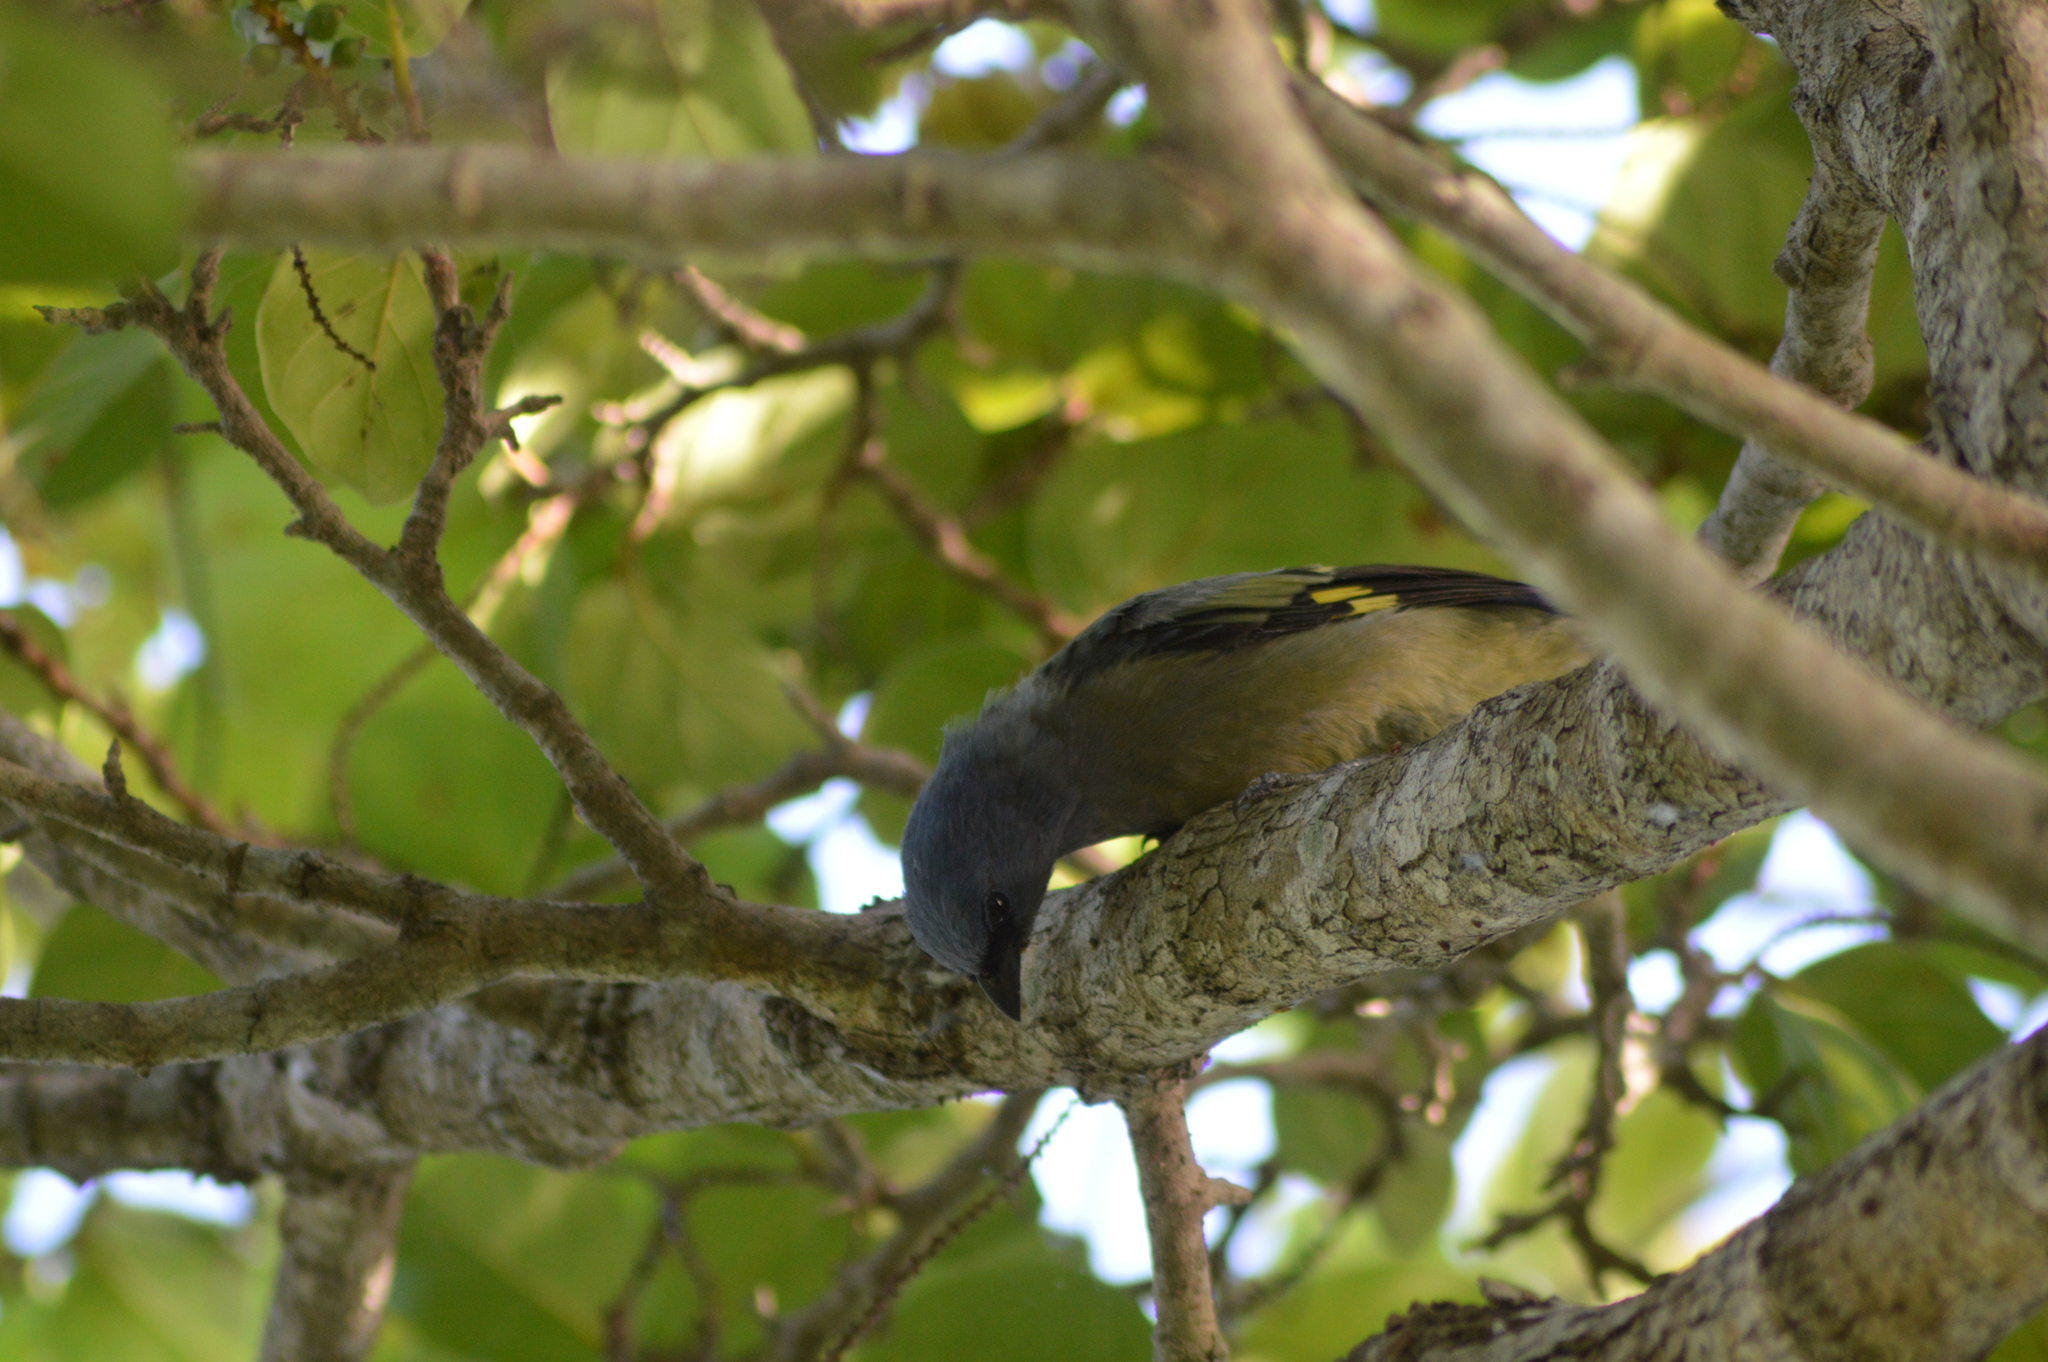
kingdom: Animalia
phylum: Chordata
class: Aves
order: Passeriformes
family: Thraupidae
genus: Thraupis
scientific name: Thraupis abbas
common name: Yellow-winged tanager
